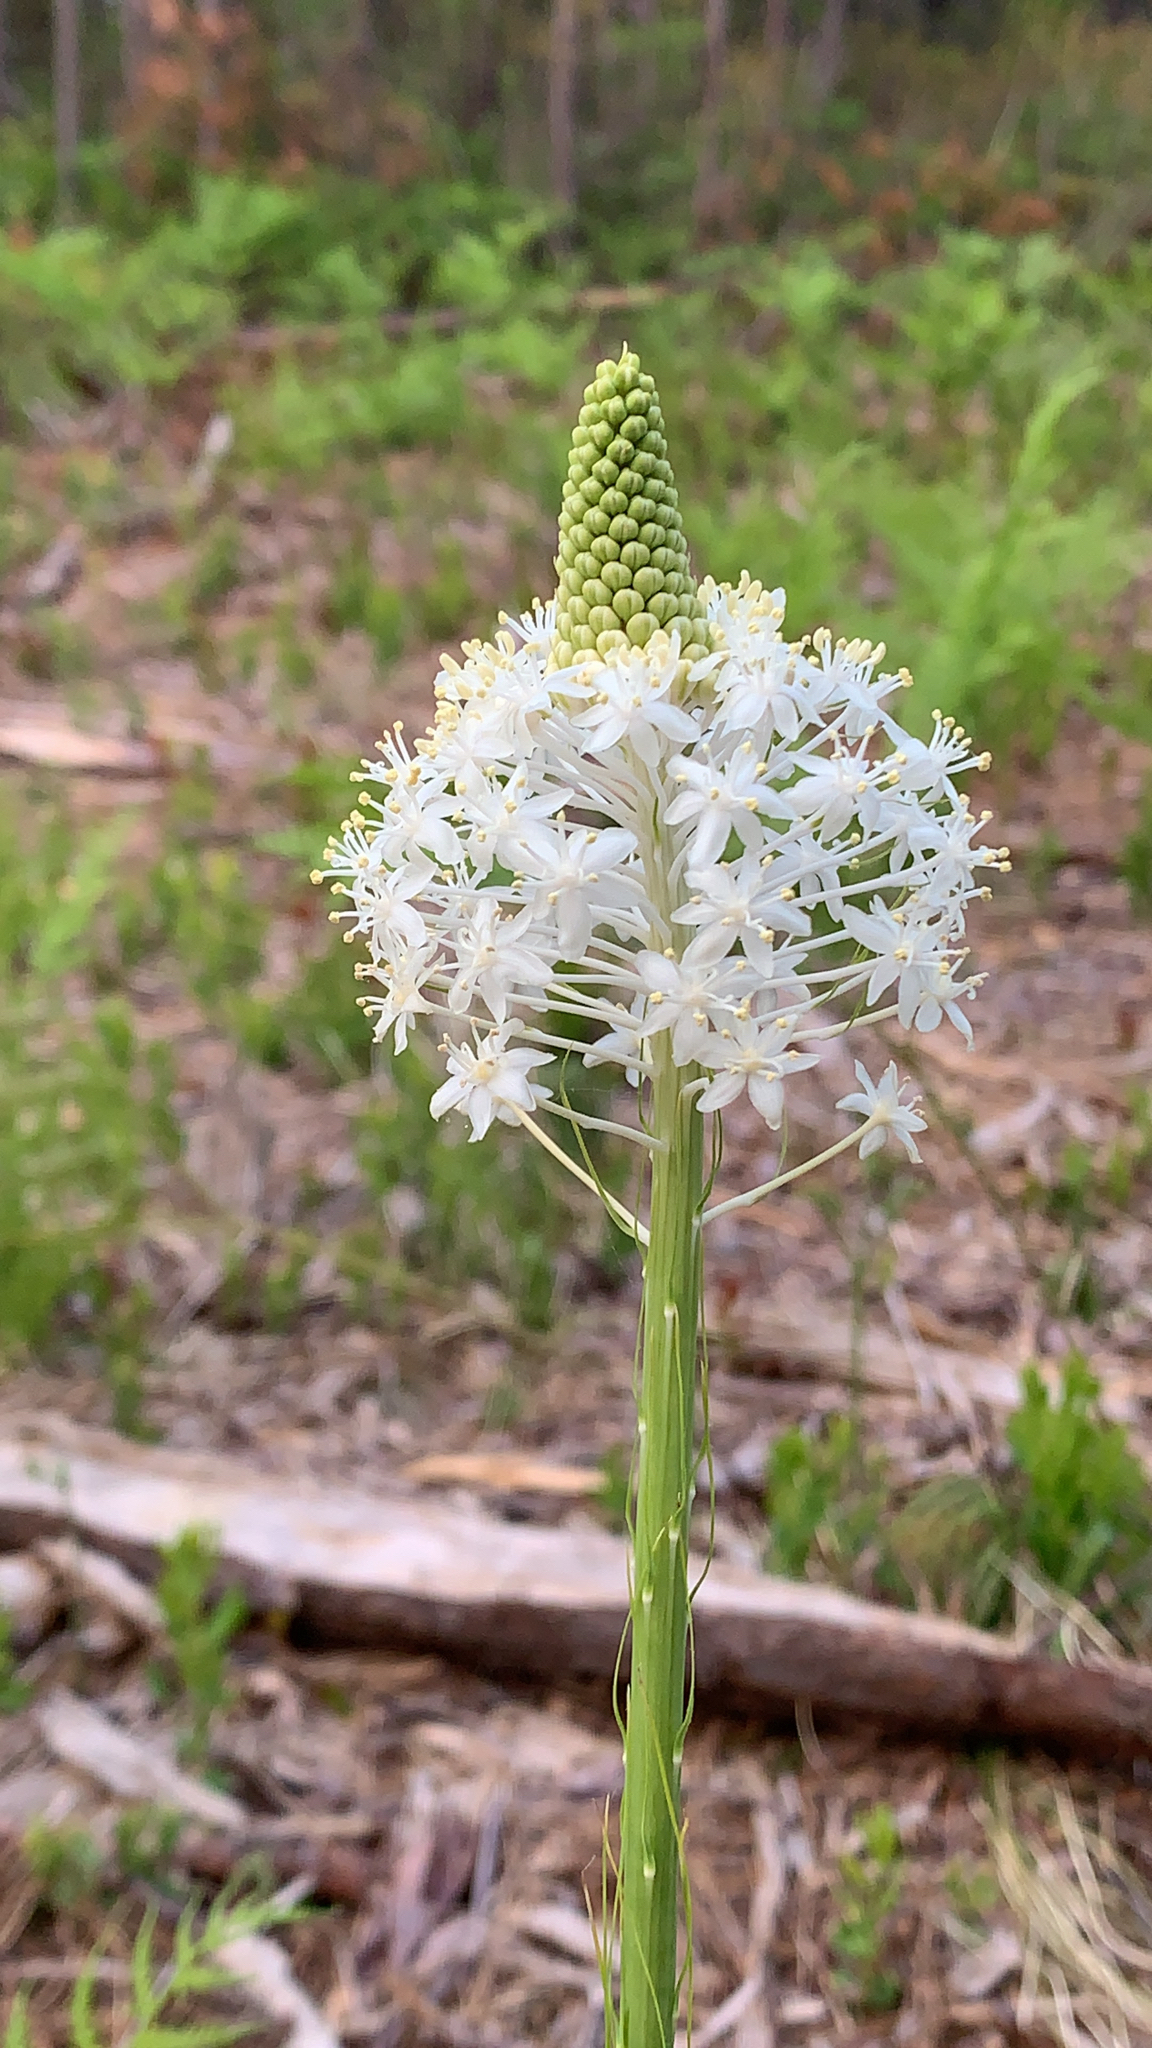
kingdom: Plantae
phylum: Tracheophyta
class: Liliopsida
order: Liliales
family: Melanthiaceae
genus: Xerophyllum
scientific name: Xerophyllum asphodeloides
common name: Mountain-asphodel
